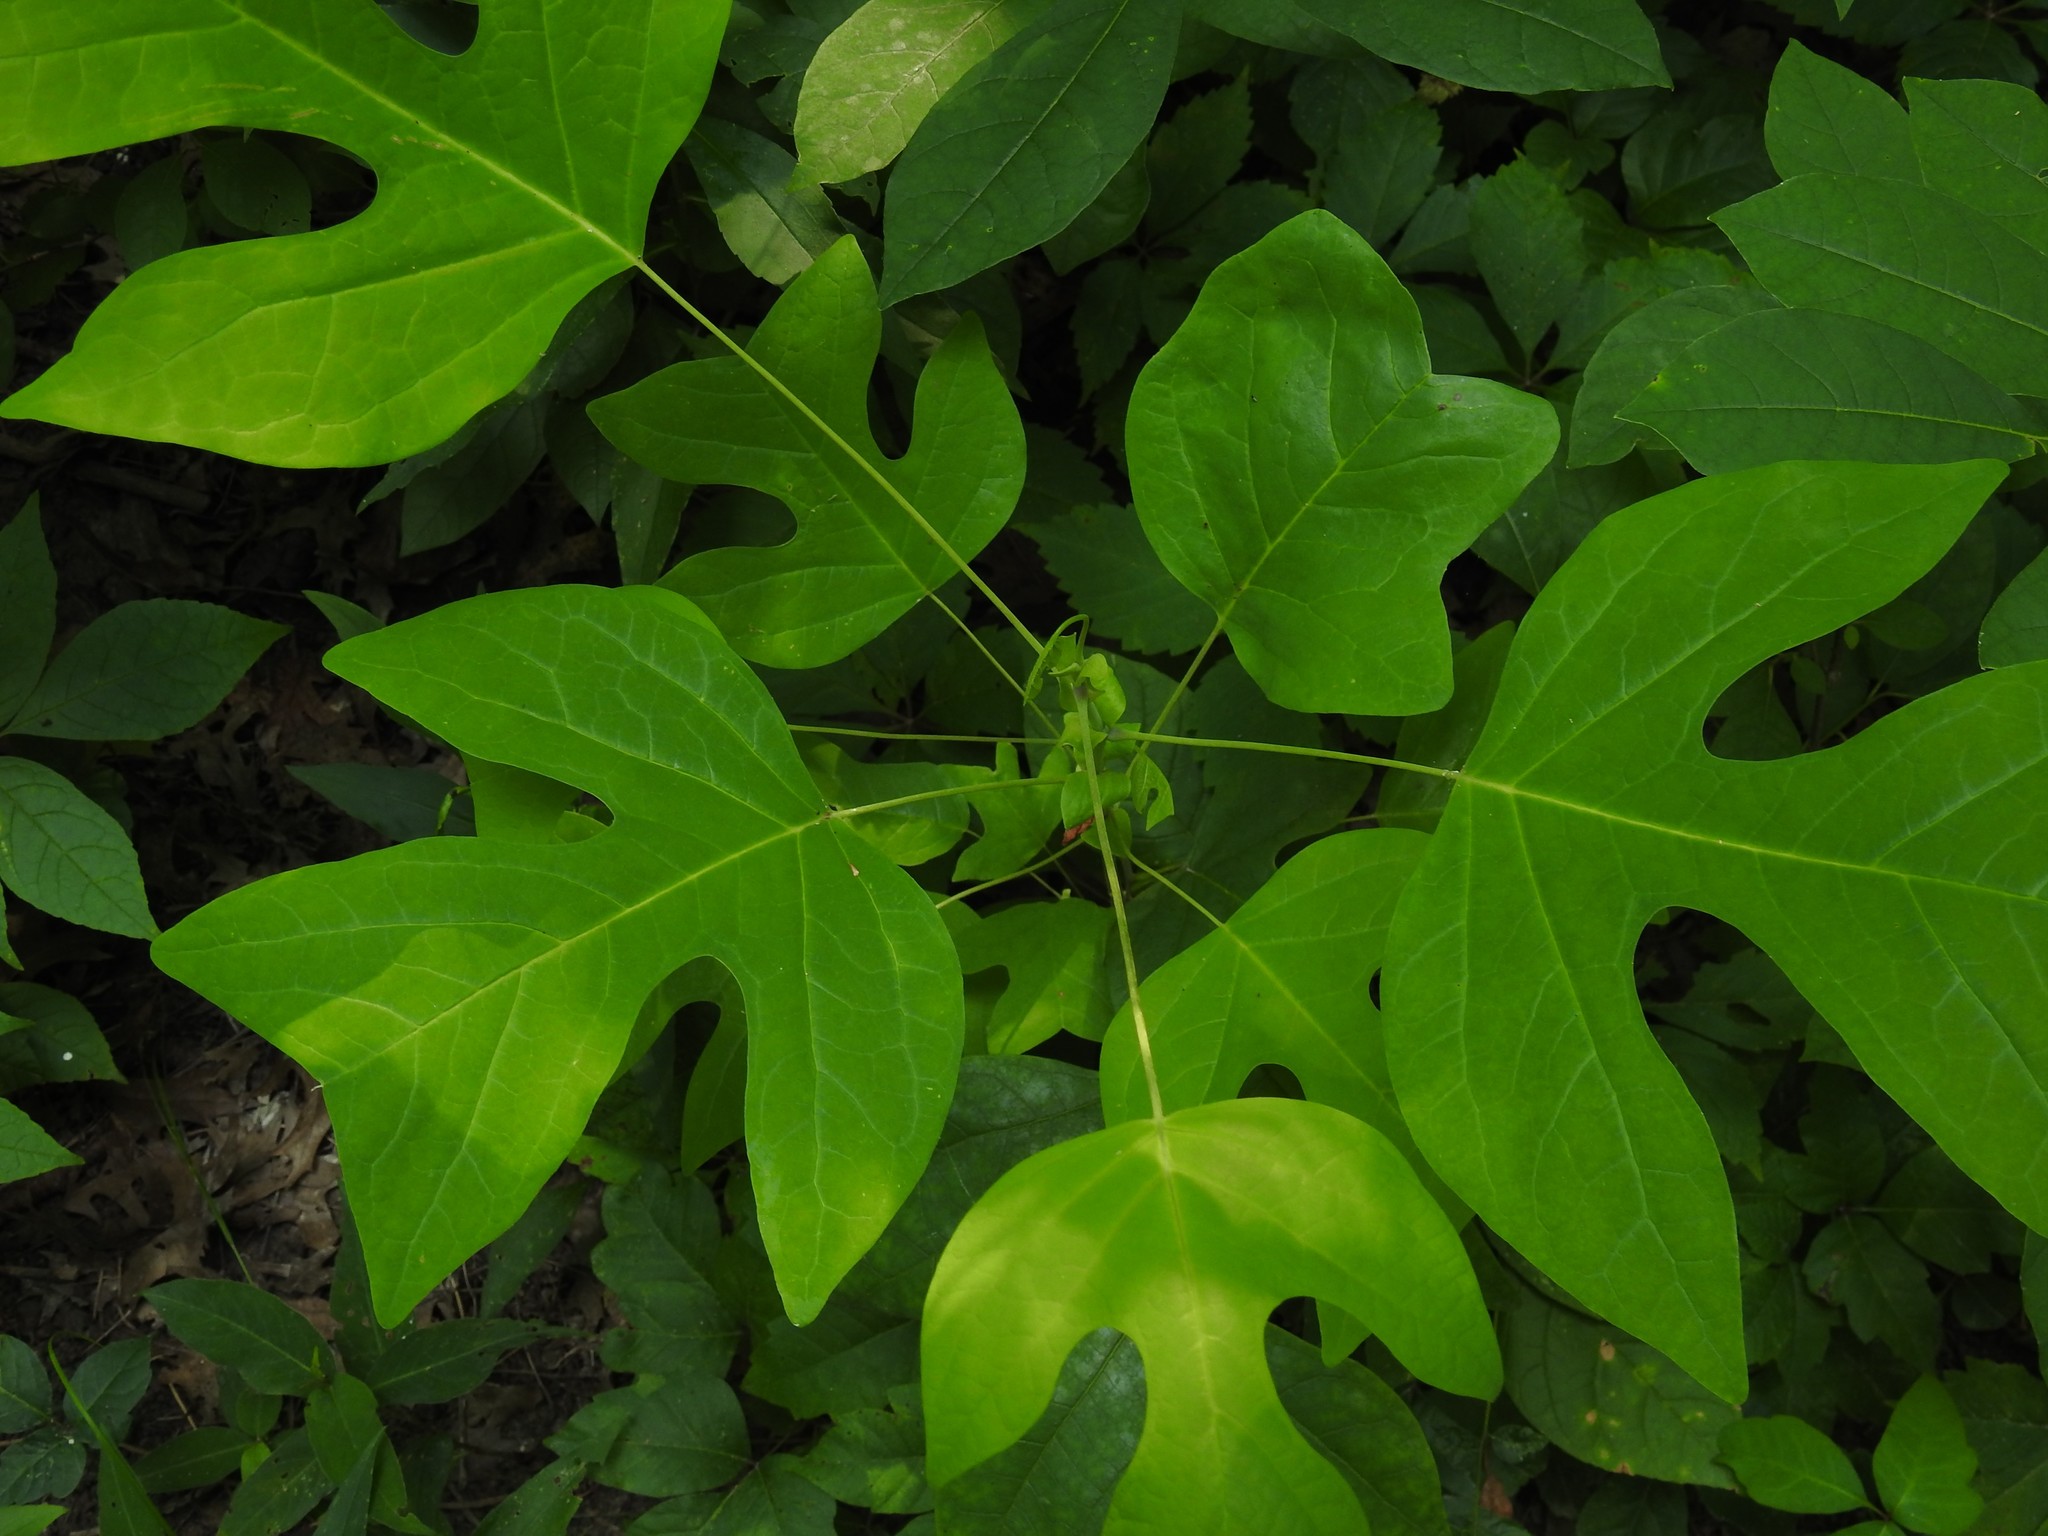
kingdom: Plantae
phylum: Tracheophyta
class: Magnoliopsida
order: Magnoliales
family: Magnoliaceae
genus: Liriodendron
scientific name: Liriodendron tulipifera
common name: Tulip tree
